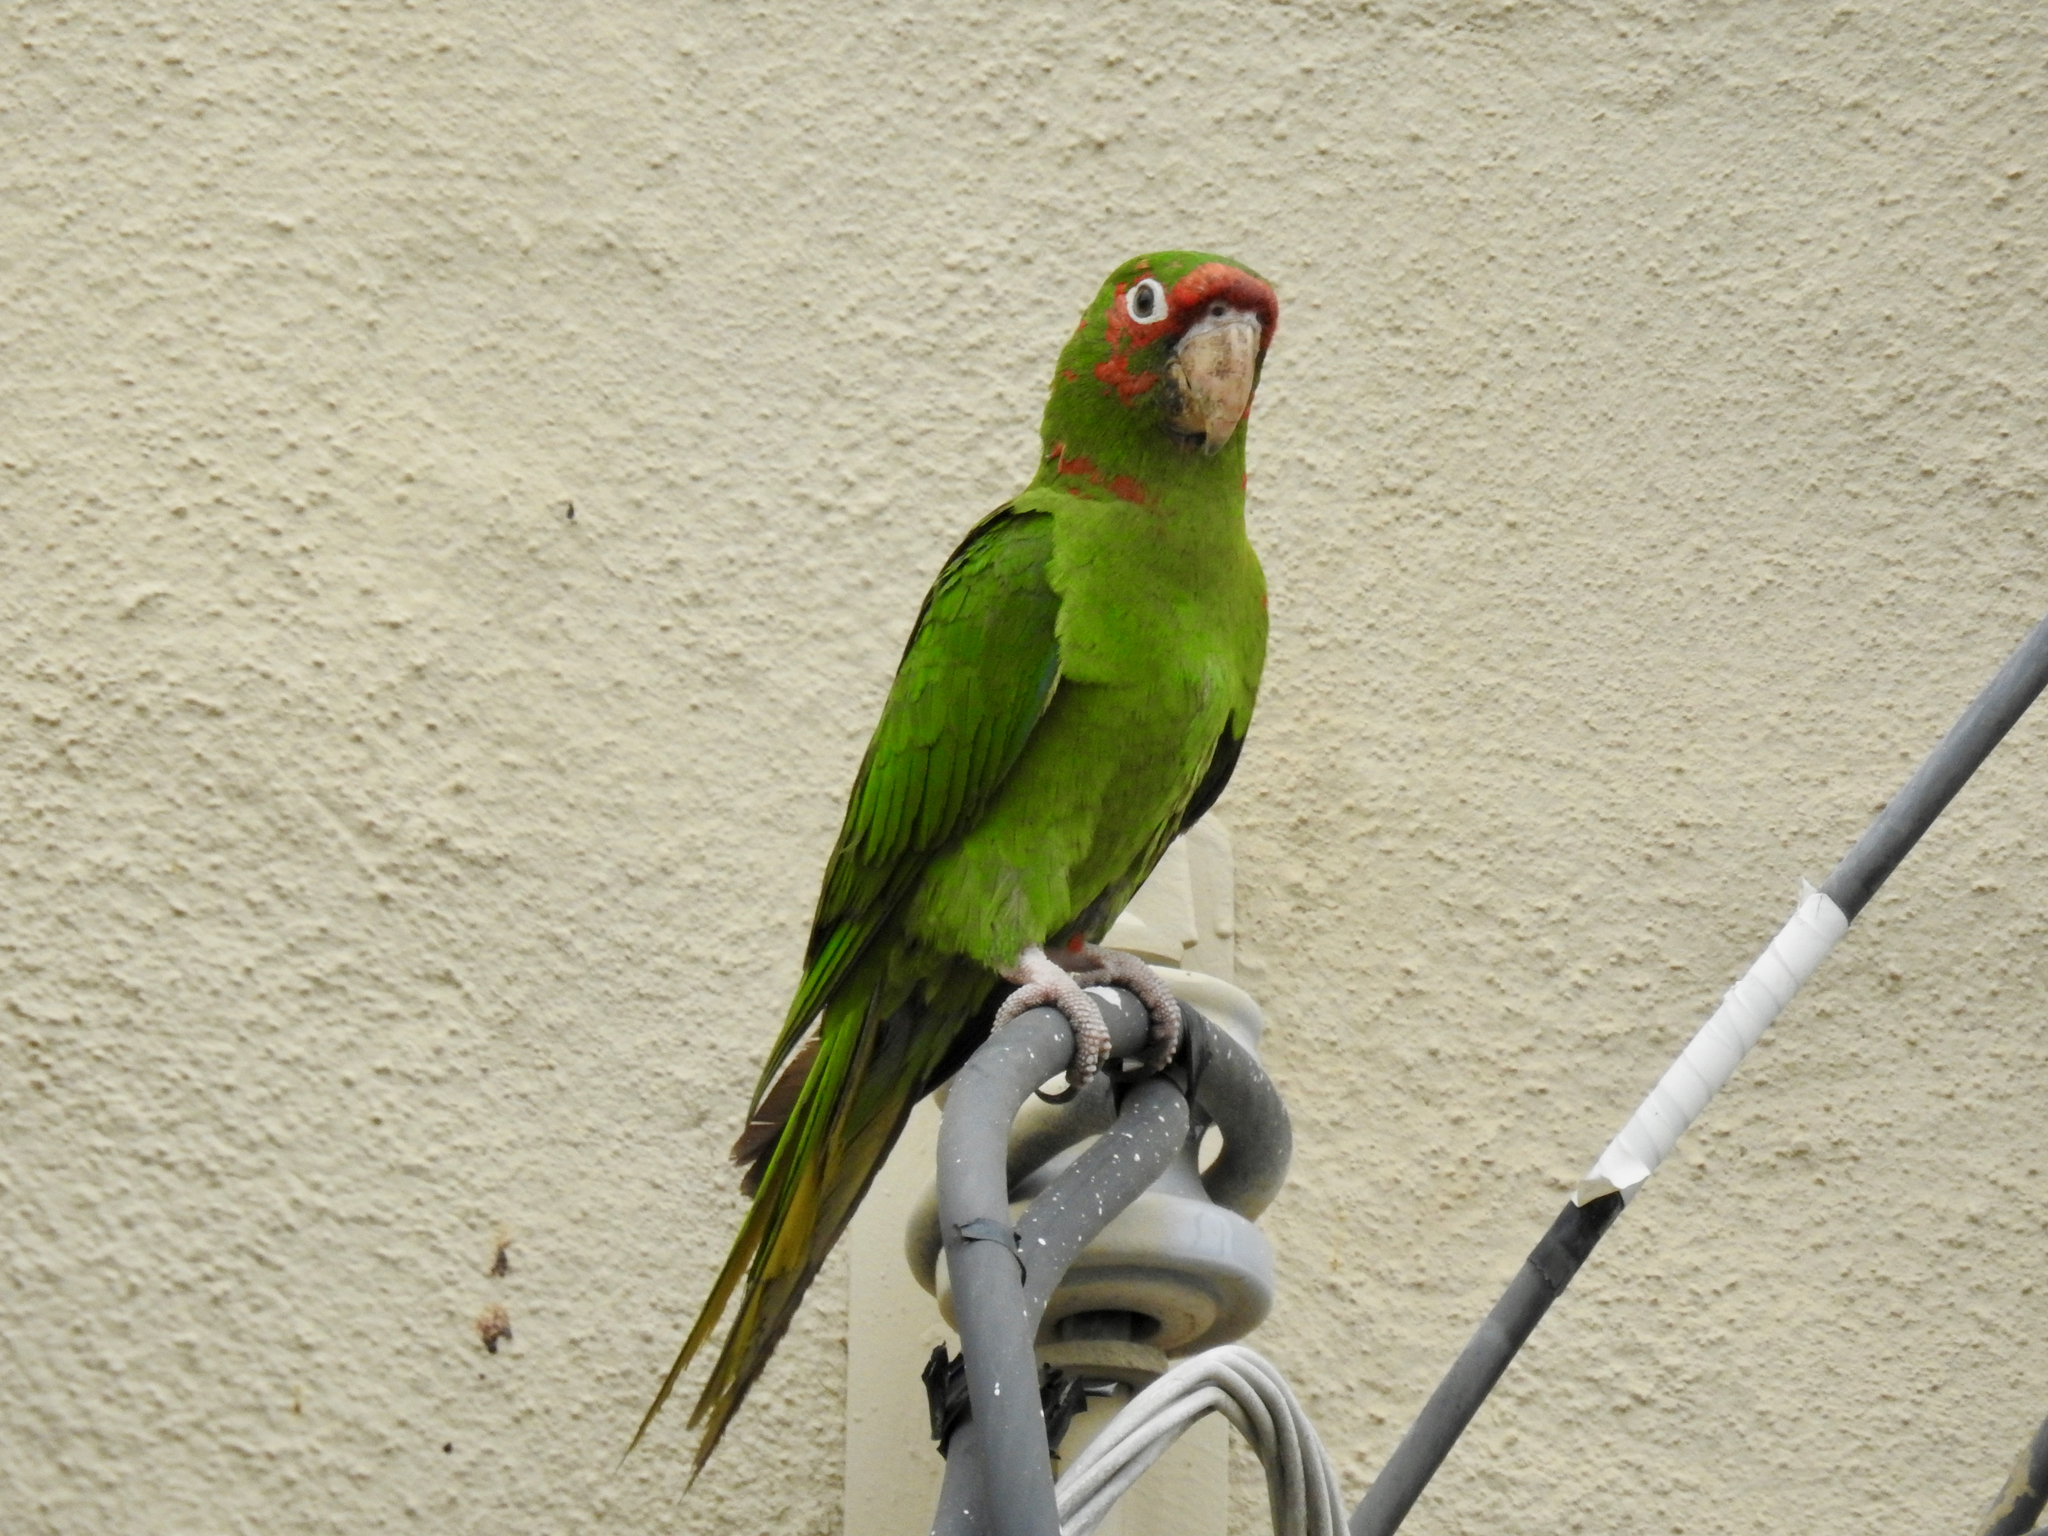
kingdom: Animalia
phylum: Chordata
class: Aves
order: Psittaciformes
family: Psittacidae
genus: Aratinga
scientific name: Aratinga mitrata
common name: Mitred parakeet
